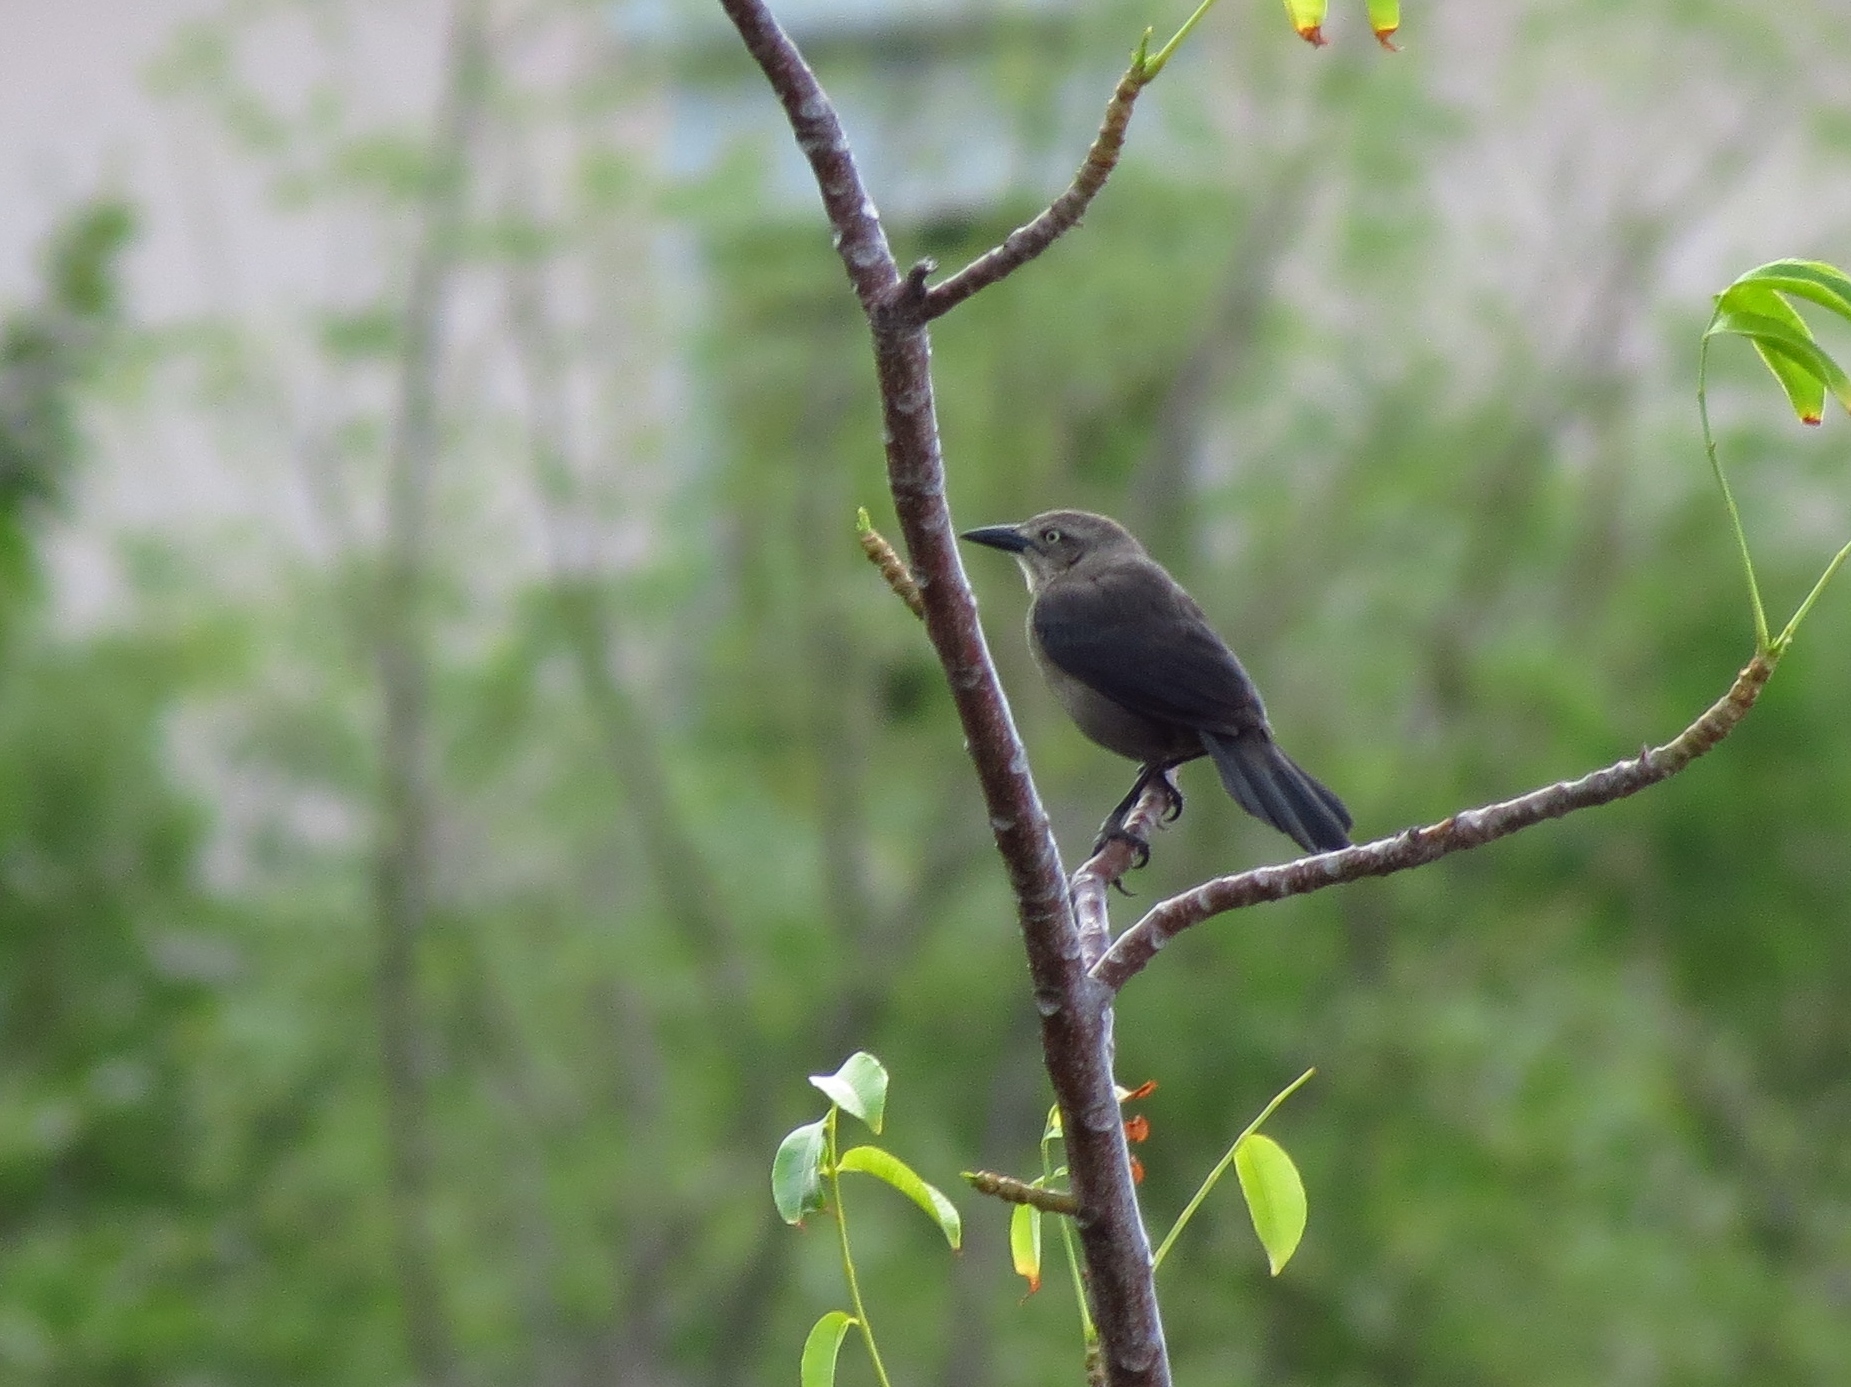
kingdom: Animalia
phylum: Chordata
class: Aves
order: Passeriformes
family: Icteridae
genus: Quiscalus
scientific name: Quiscalus lugubris
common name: Carib grackle
